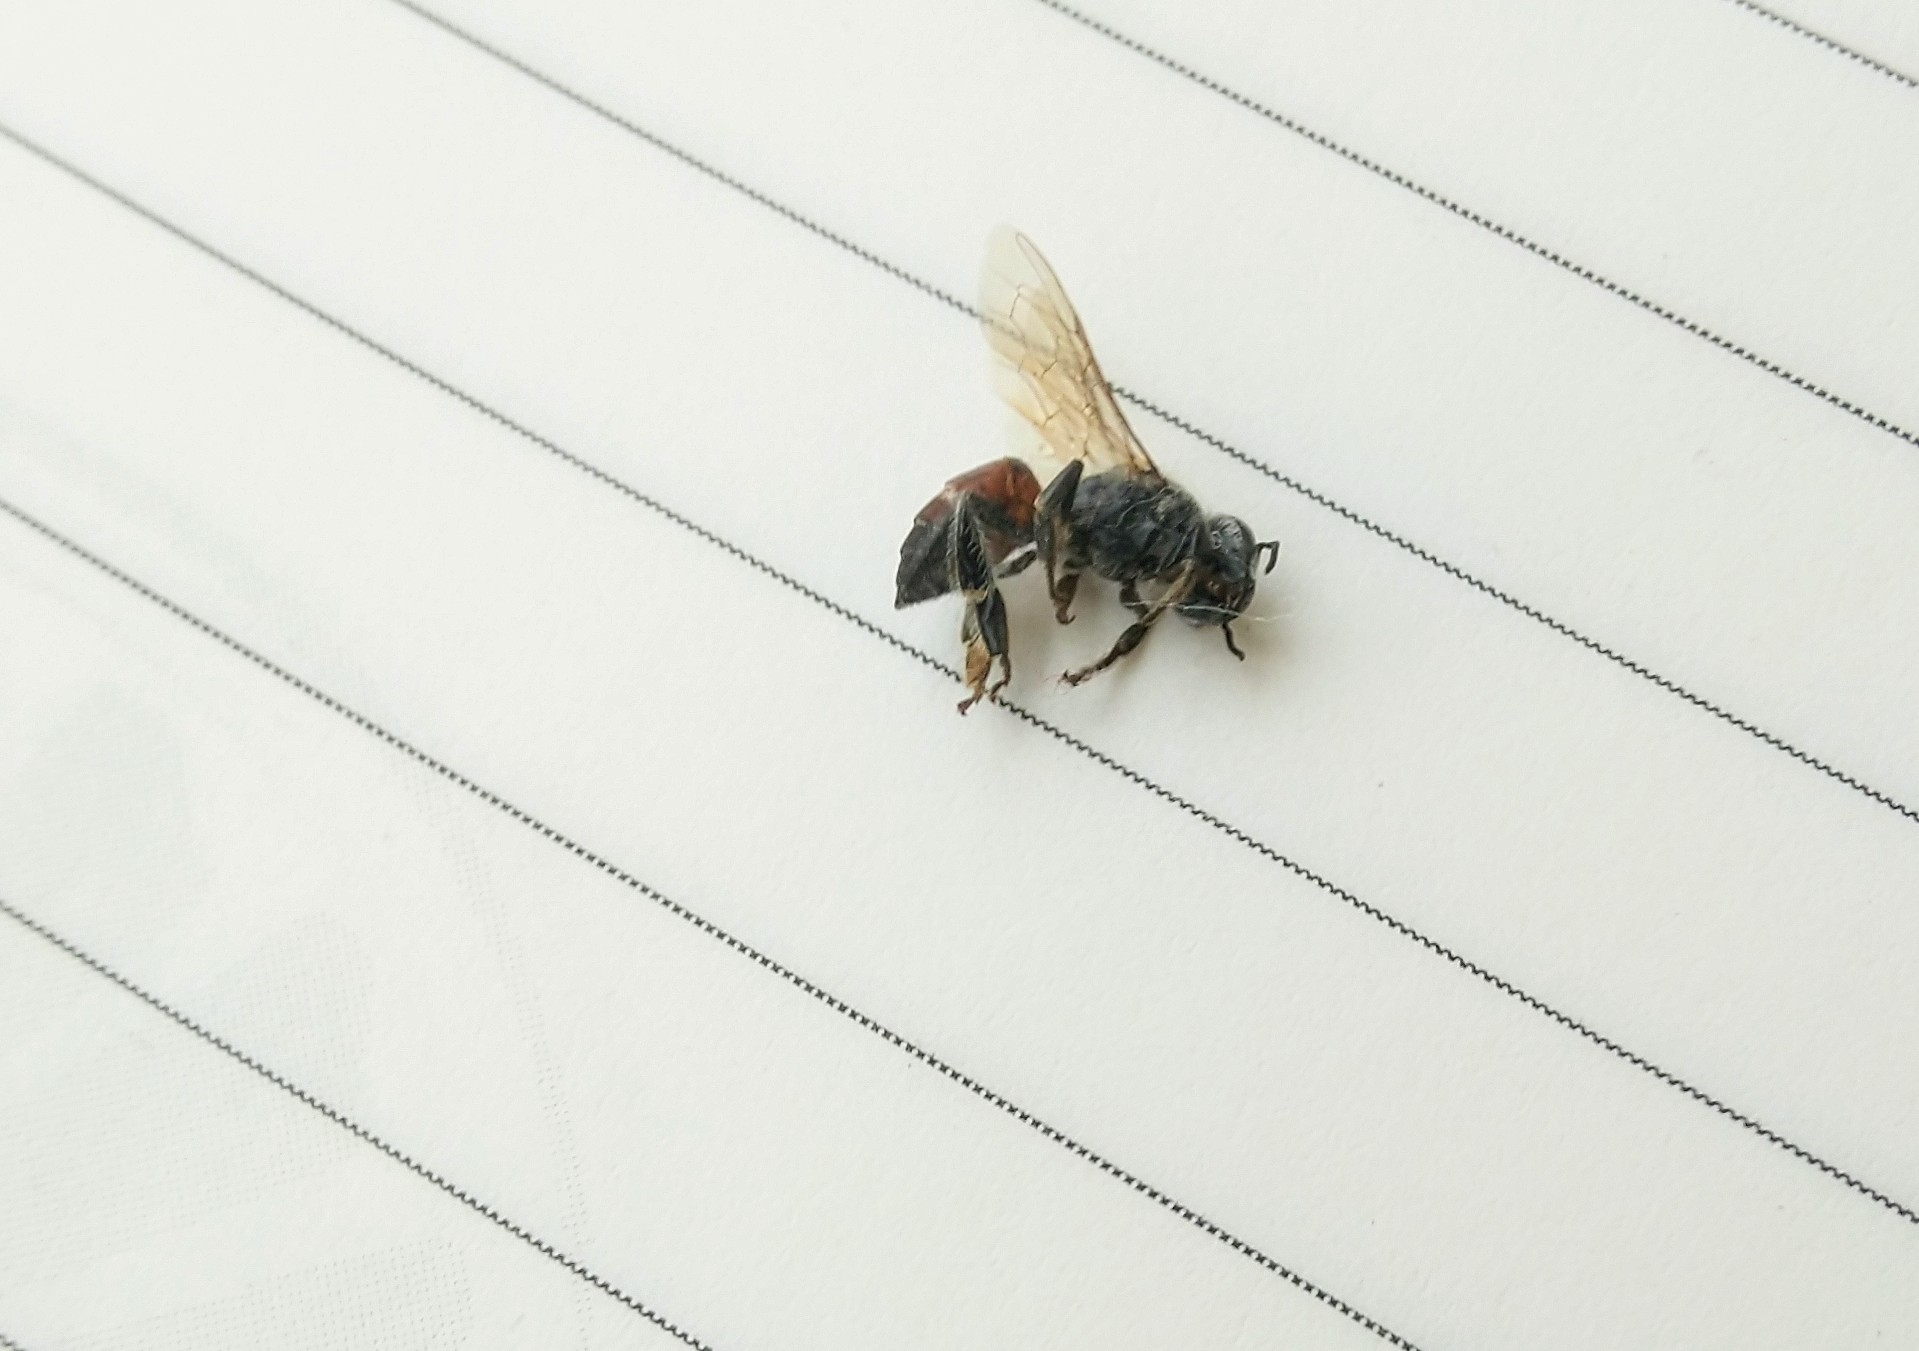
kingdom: Animalia
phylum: Arthropoda
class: Insecta
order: Hymenoptera
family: Apidae
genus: Apis
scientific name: Apis florea
